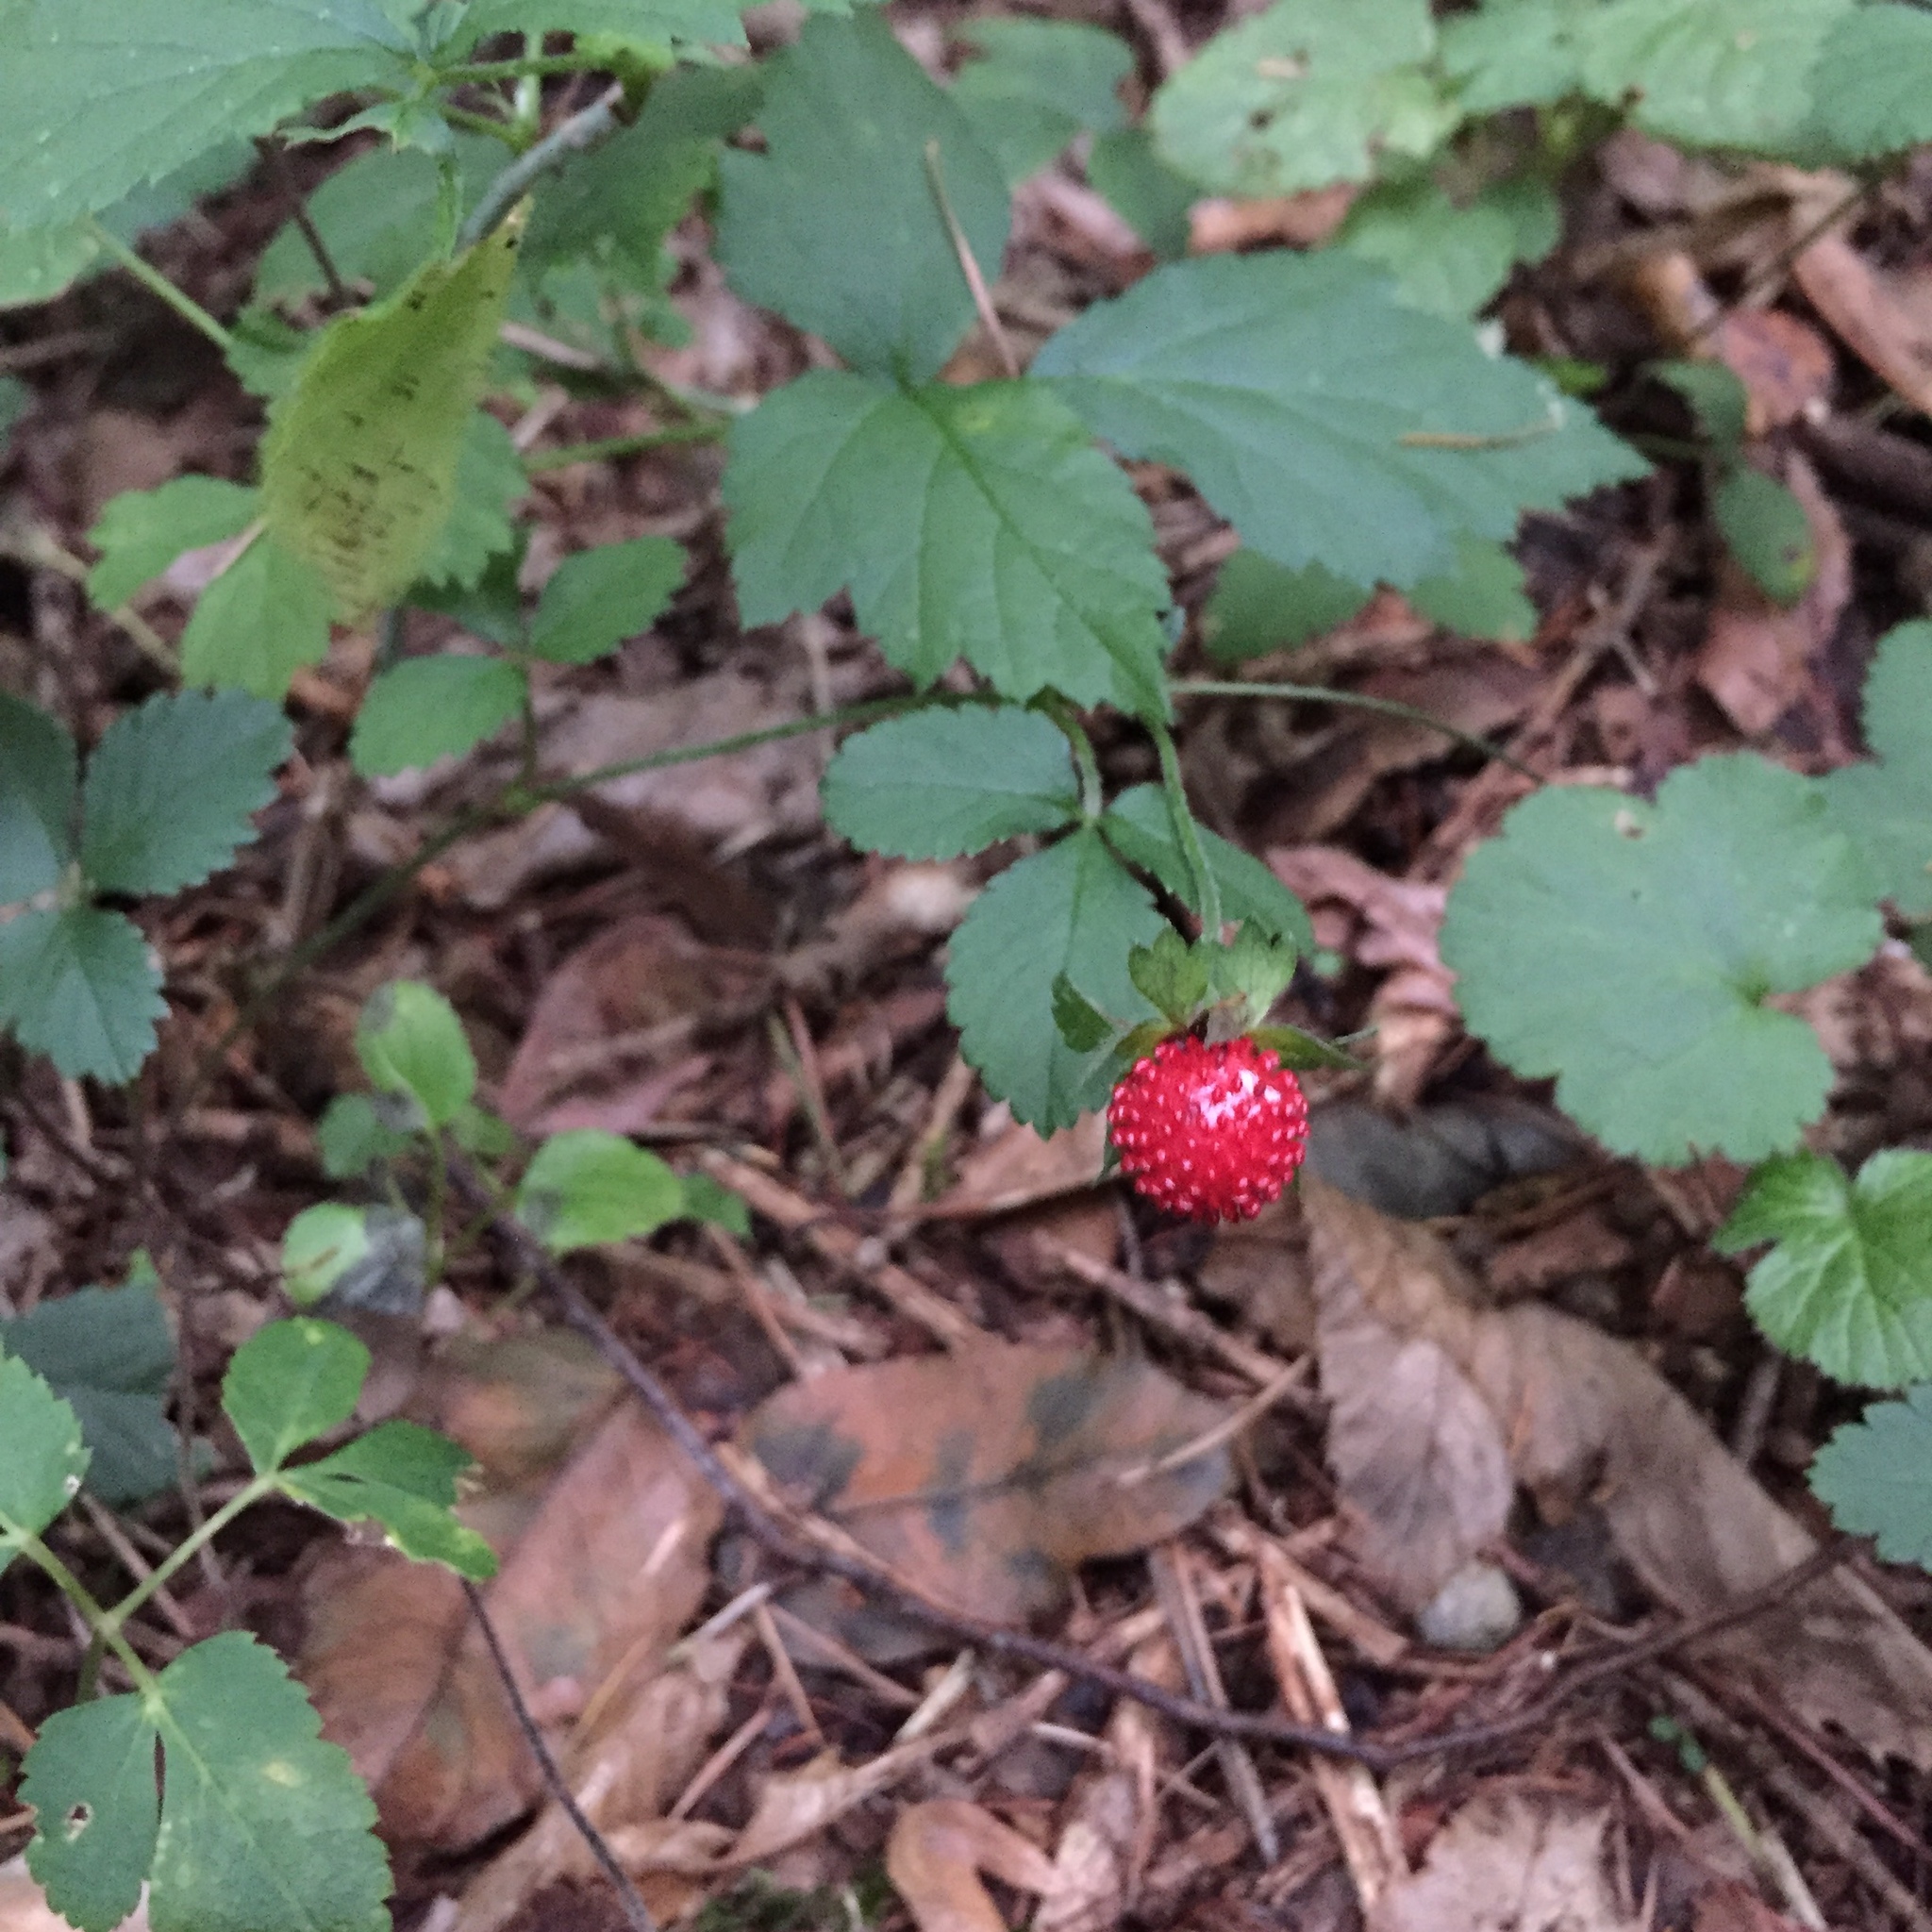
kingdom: Plantae
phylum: Tracheophyta
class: Magnoliopsida
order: Rosales
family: Rosaceae
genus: Potentilla
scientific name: Potentilla indica
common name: Yellow-flowered strawberry
